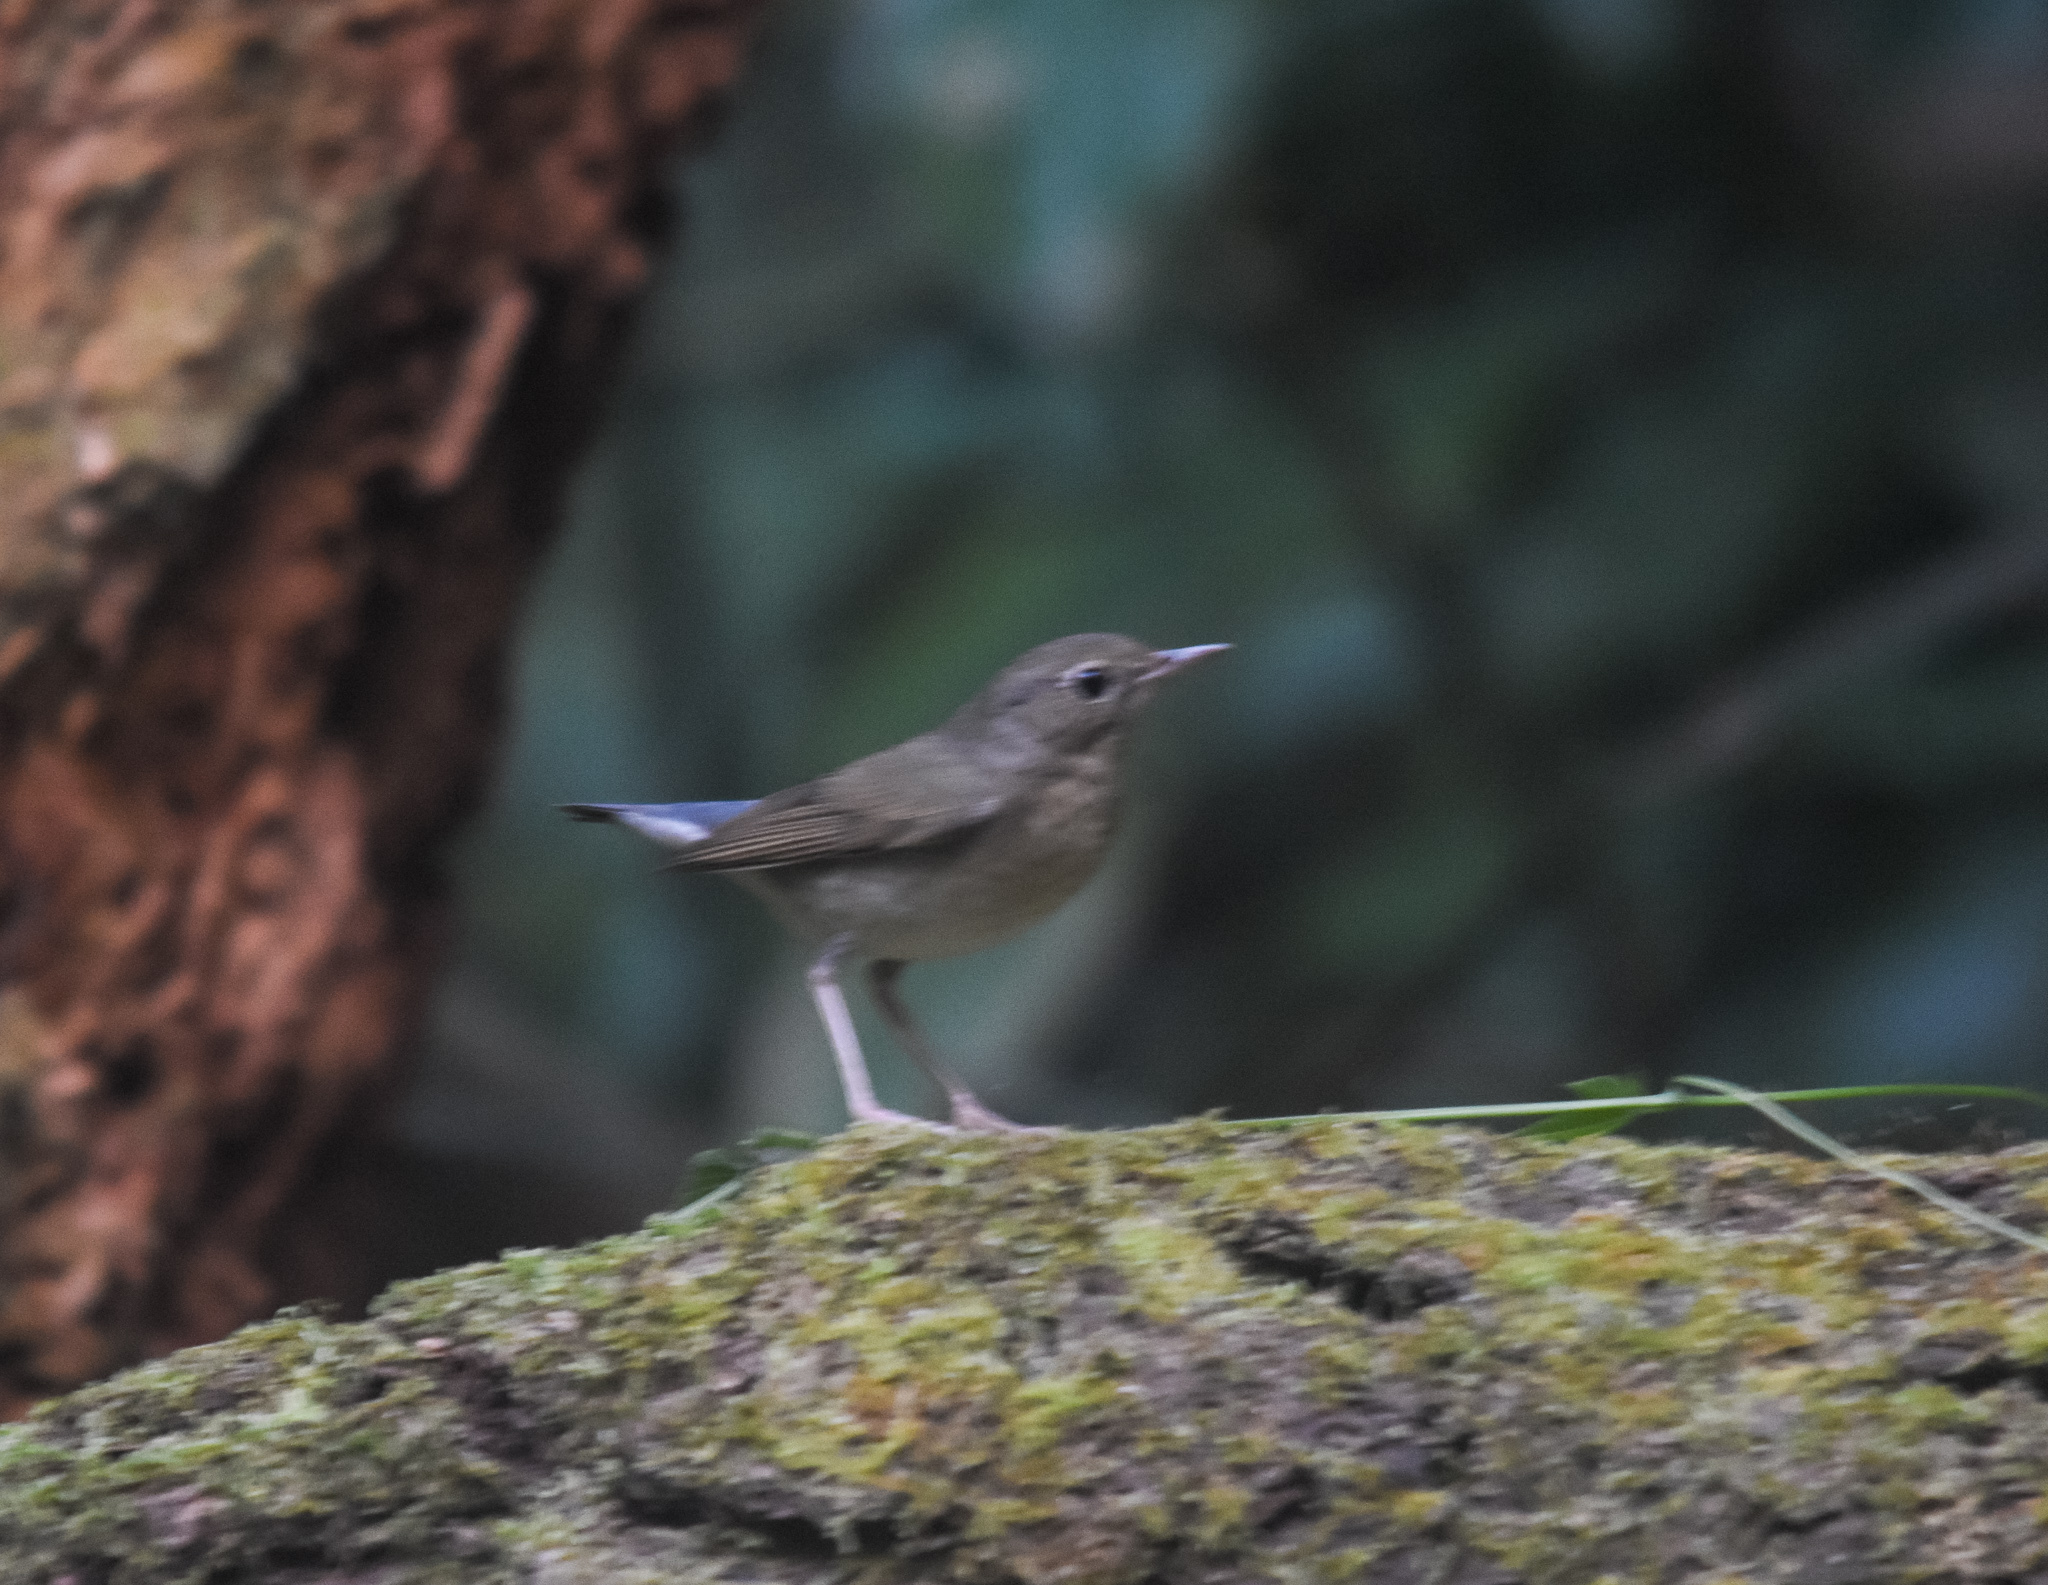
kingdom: Animalia
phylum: Chordata
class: Aves
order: Passeriformes
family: Muscicapidae
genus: Luscinia
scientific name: Luscinia cyane
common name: Siberian blue robin
